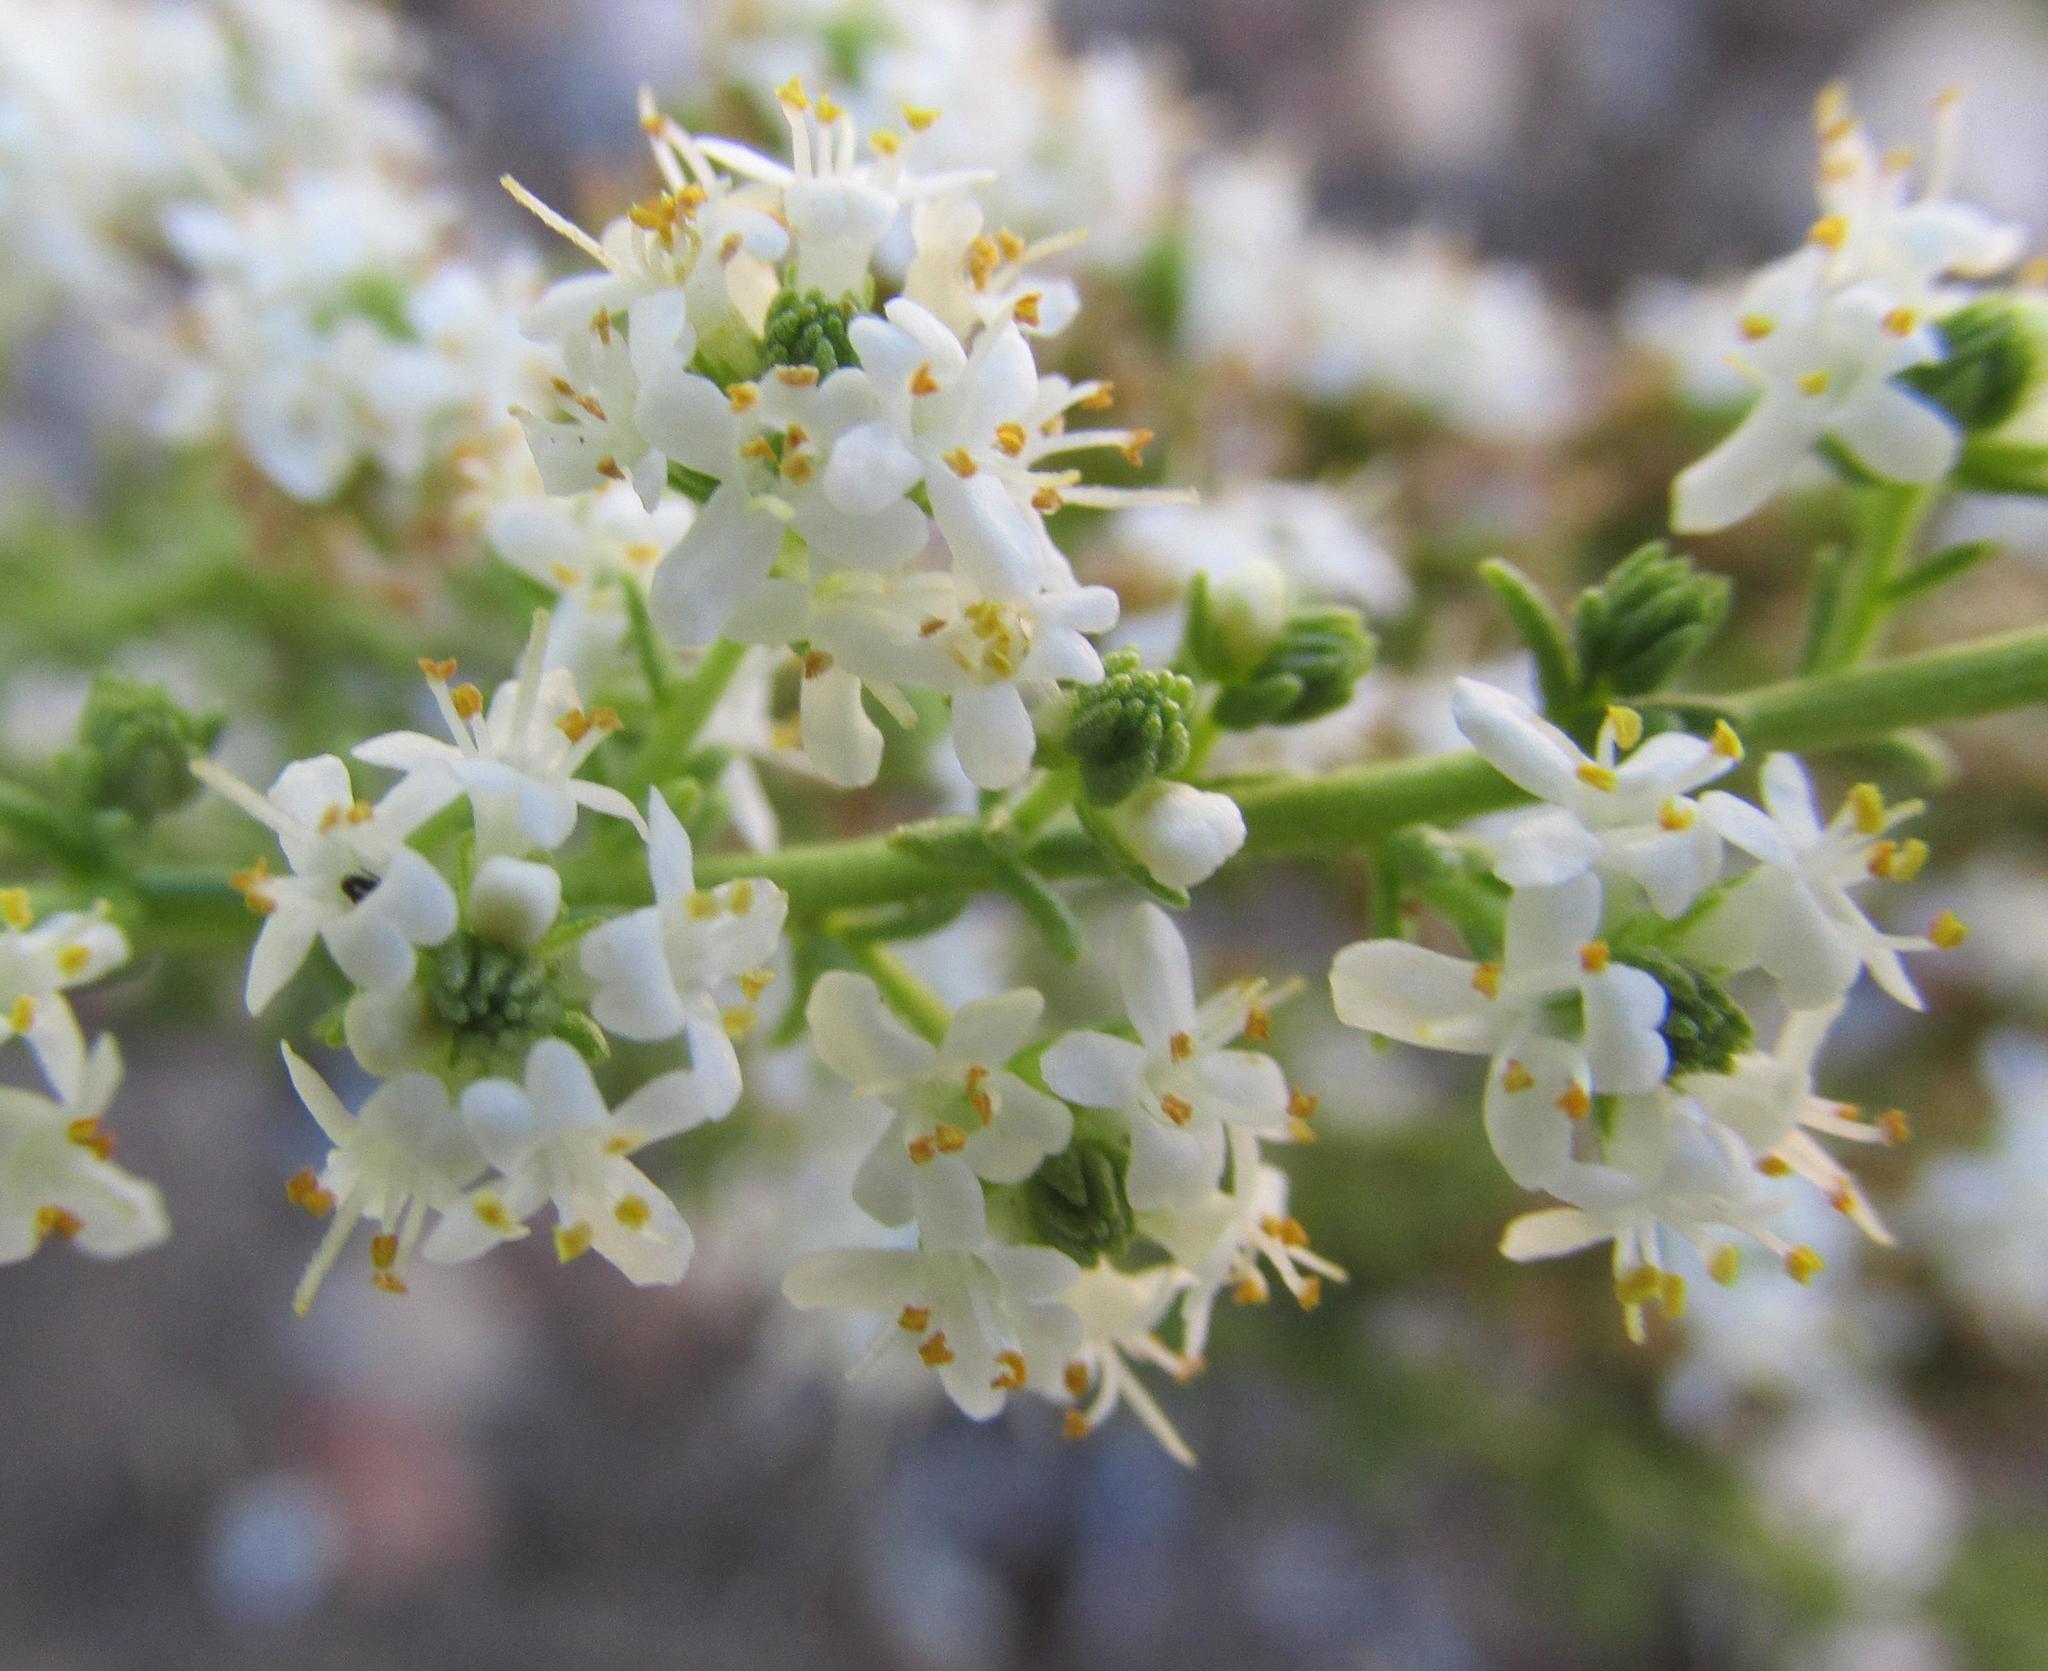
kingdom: Plantae
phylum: Tracheophyta
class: Magnoliopsida
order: Lamiales
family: Scrophulariaceae
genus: Selago
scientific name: Selago gracilis
